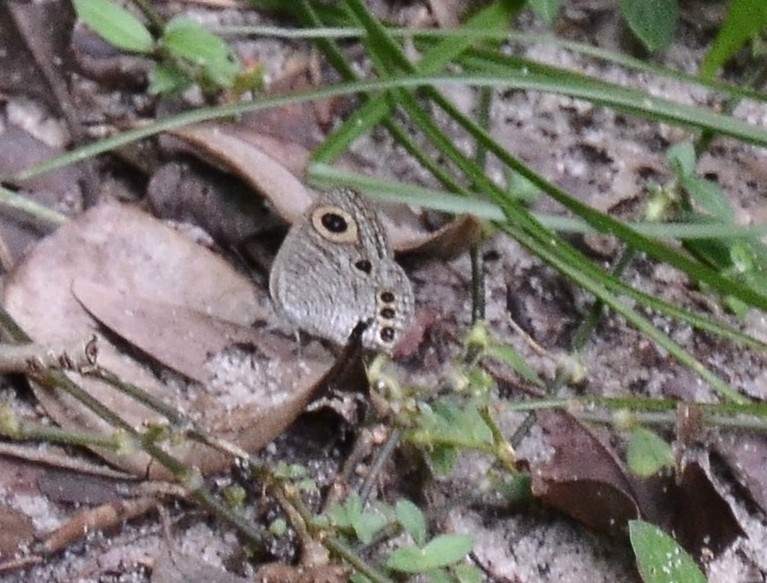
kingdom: Animalia
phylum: Arthropoda
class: Insecta
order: Lepidoptera
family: Nymphalidae
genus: Ypthima
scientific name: Ypthima huebneri
